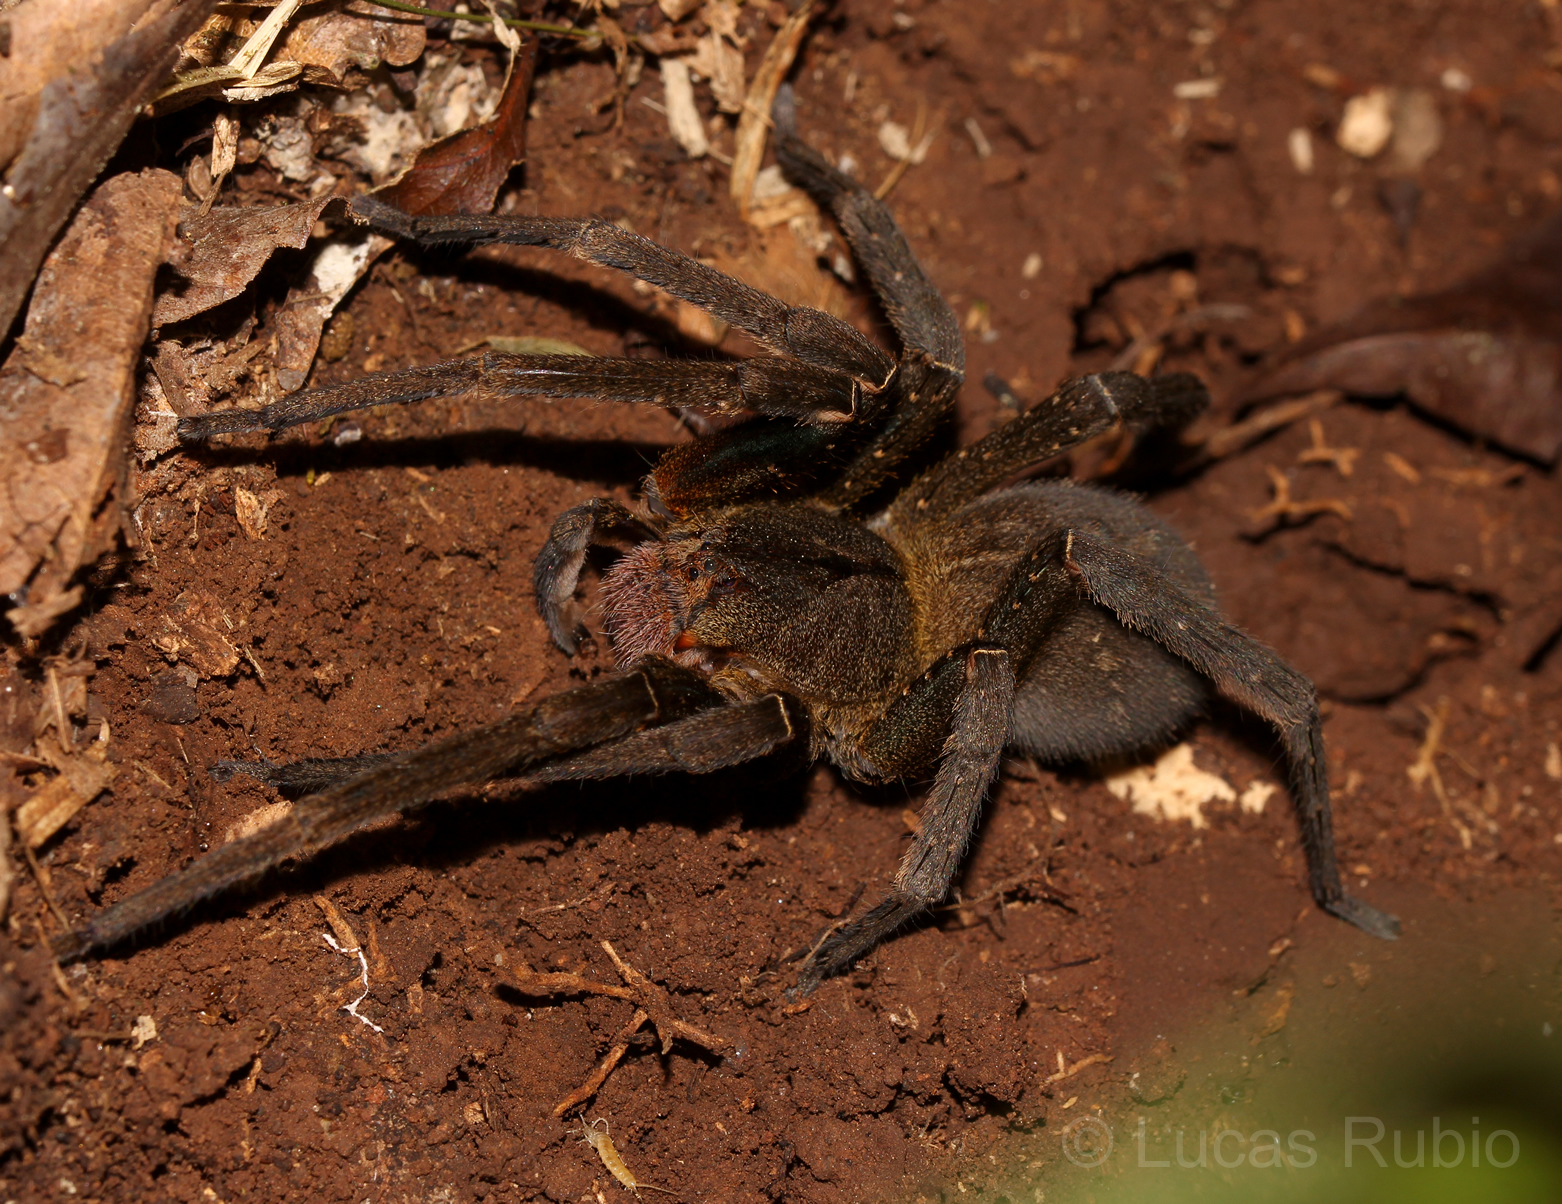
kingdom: Animalia
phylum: Arthropoda
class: Arachnida
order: Araneae
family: Ctenidae
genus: Phoneutria
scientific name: Phoneutria nigriventer
